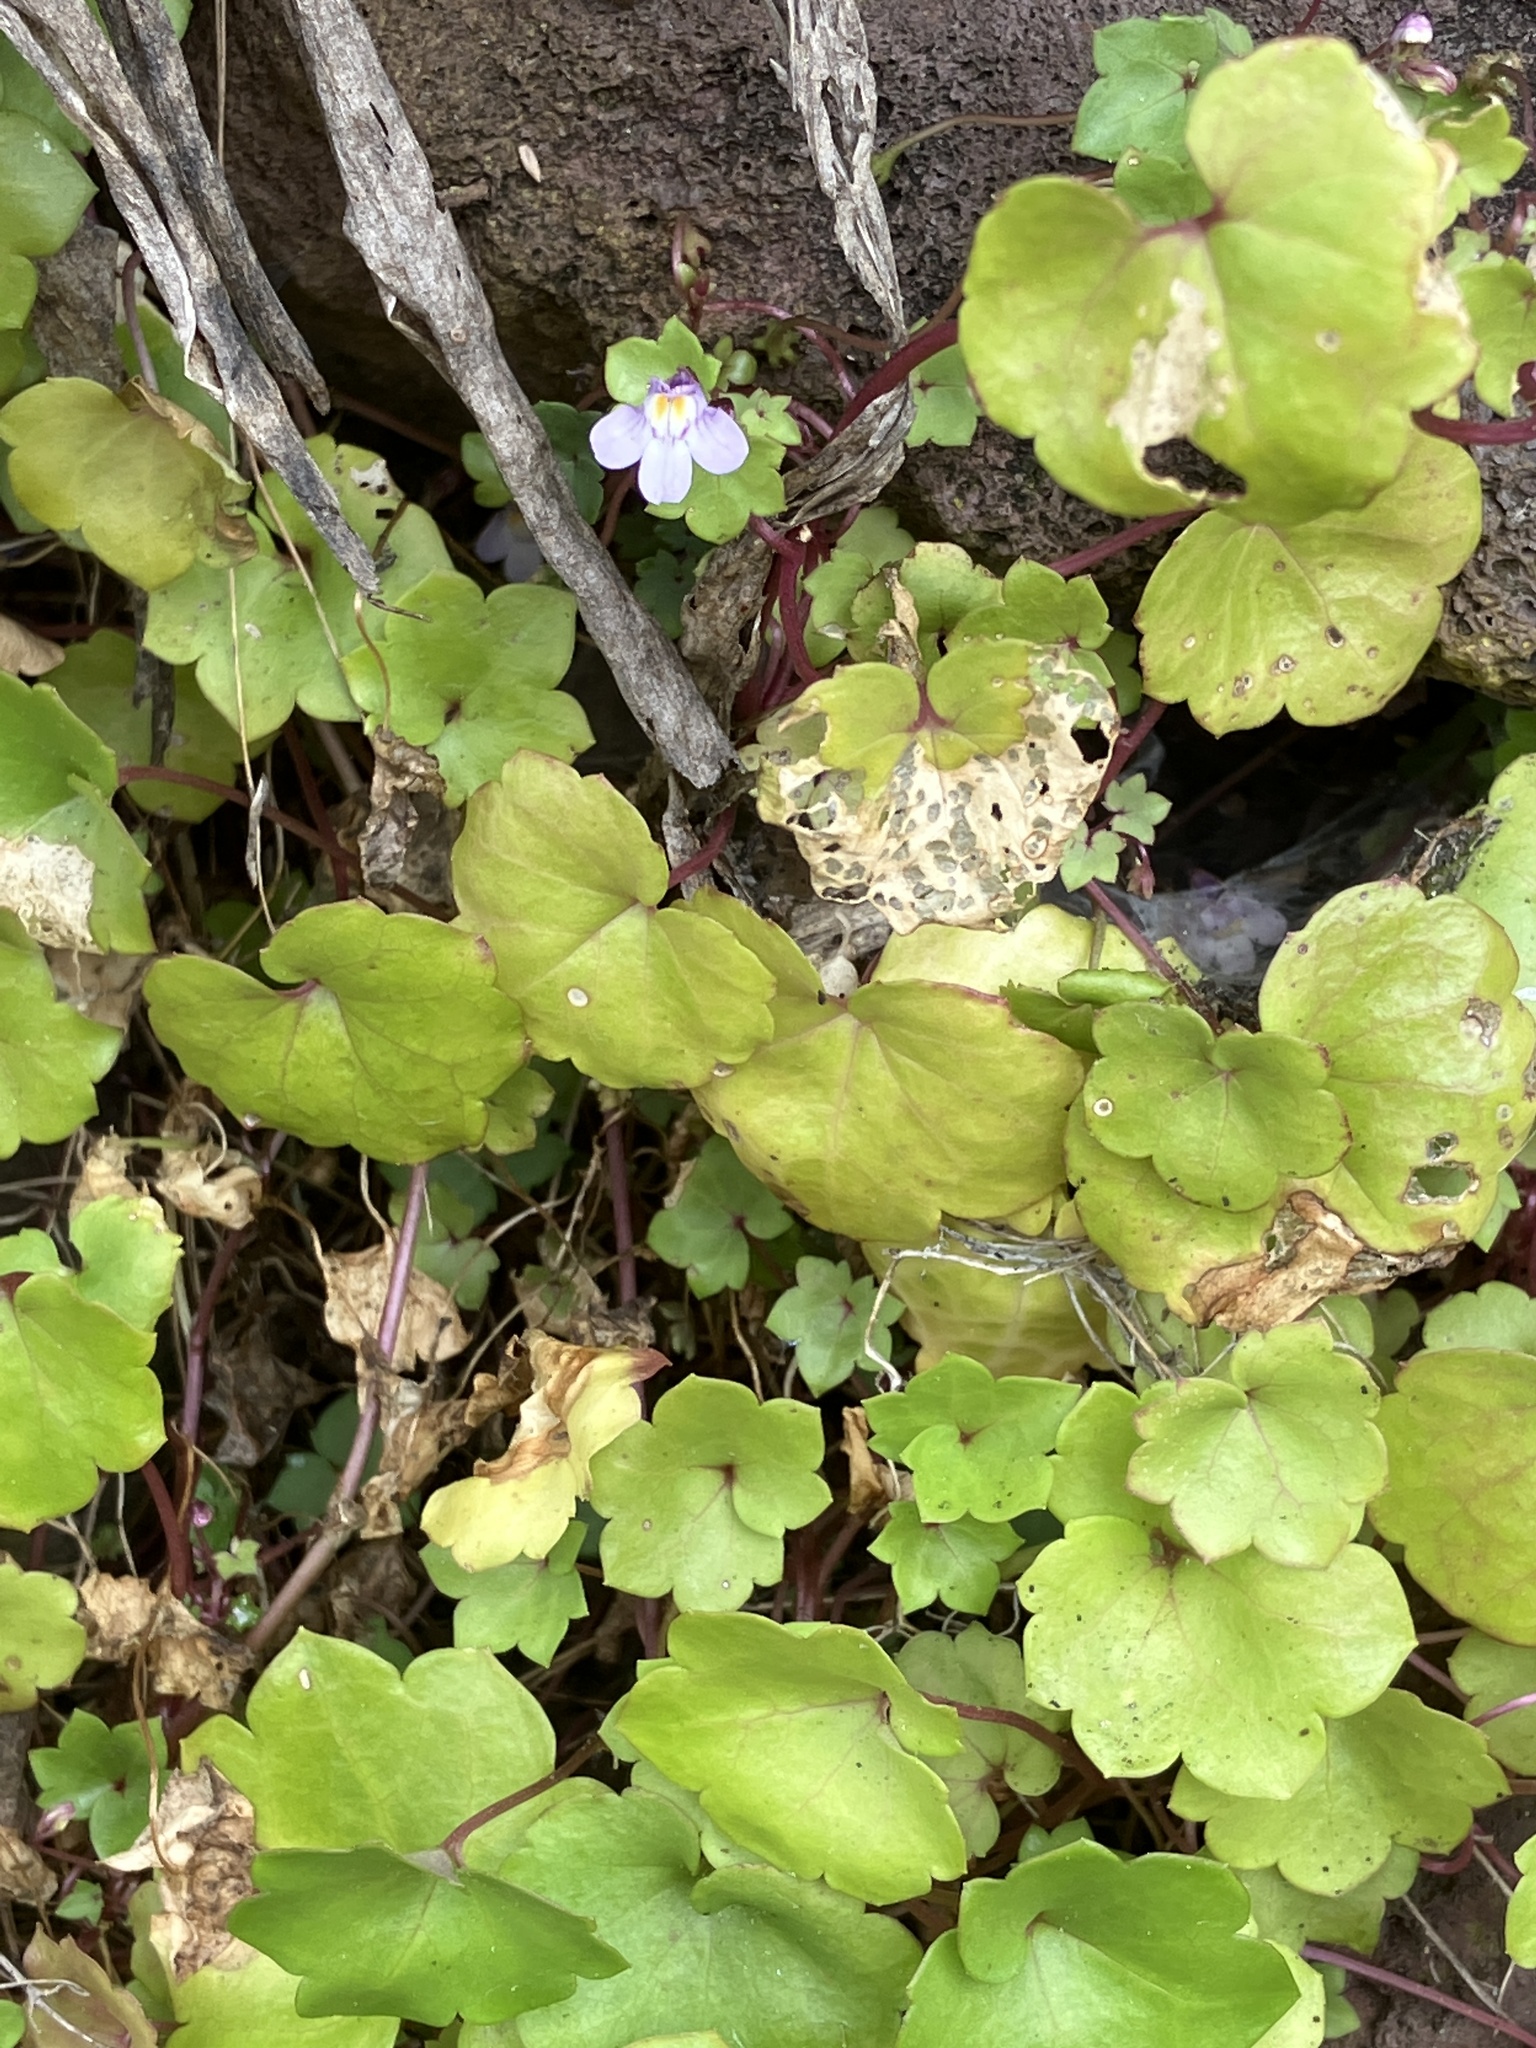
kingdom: Plantae
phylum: Tracheophyta
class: Magnoliopsida
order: Lamiales
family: Plantaginaceae
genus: Cymbalaria
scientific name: Cymbalaria muralis
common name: Ivy-leaved toadflax
